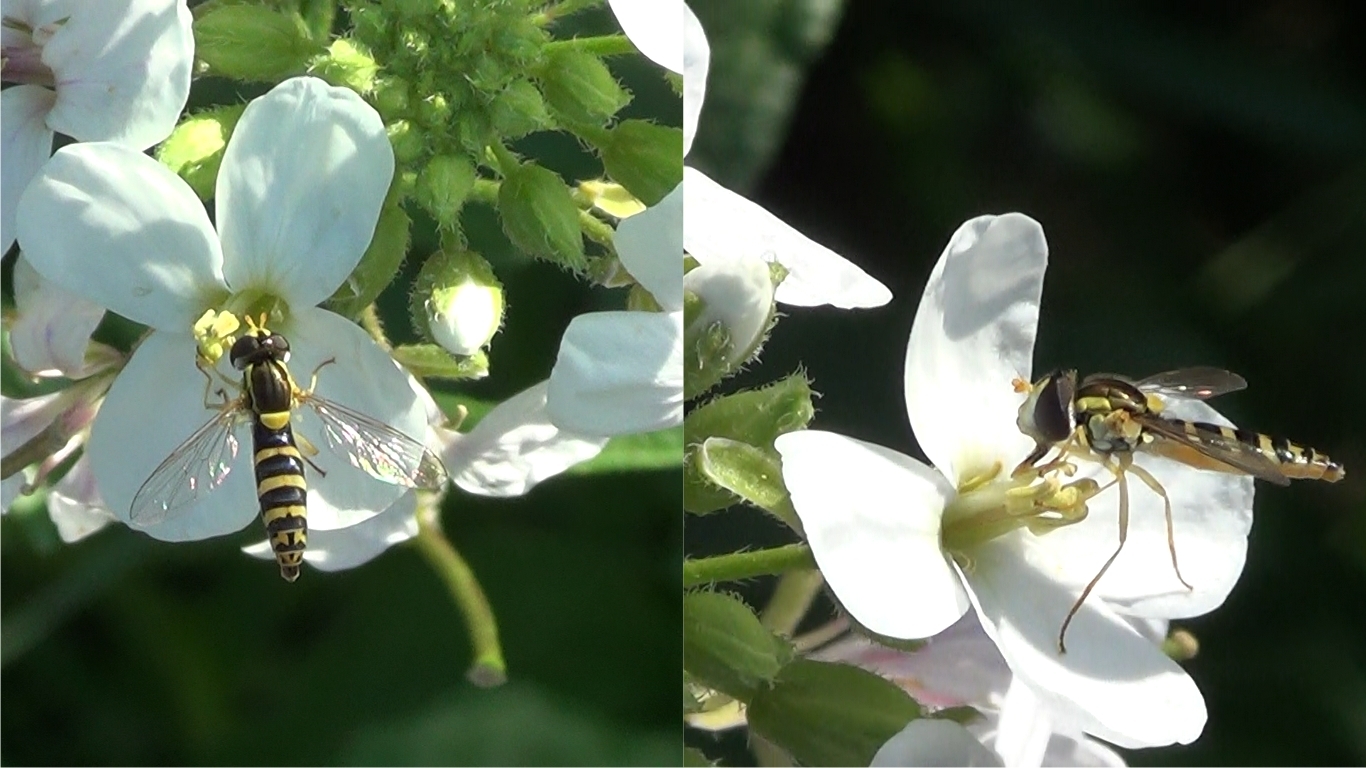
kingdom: Animalia
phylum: Arthropoda
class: Insecta
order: Diptera
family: Syrphidae
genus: Sphaerophoria
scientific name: Sphaerophoria
